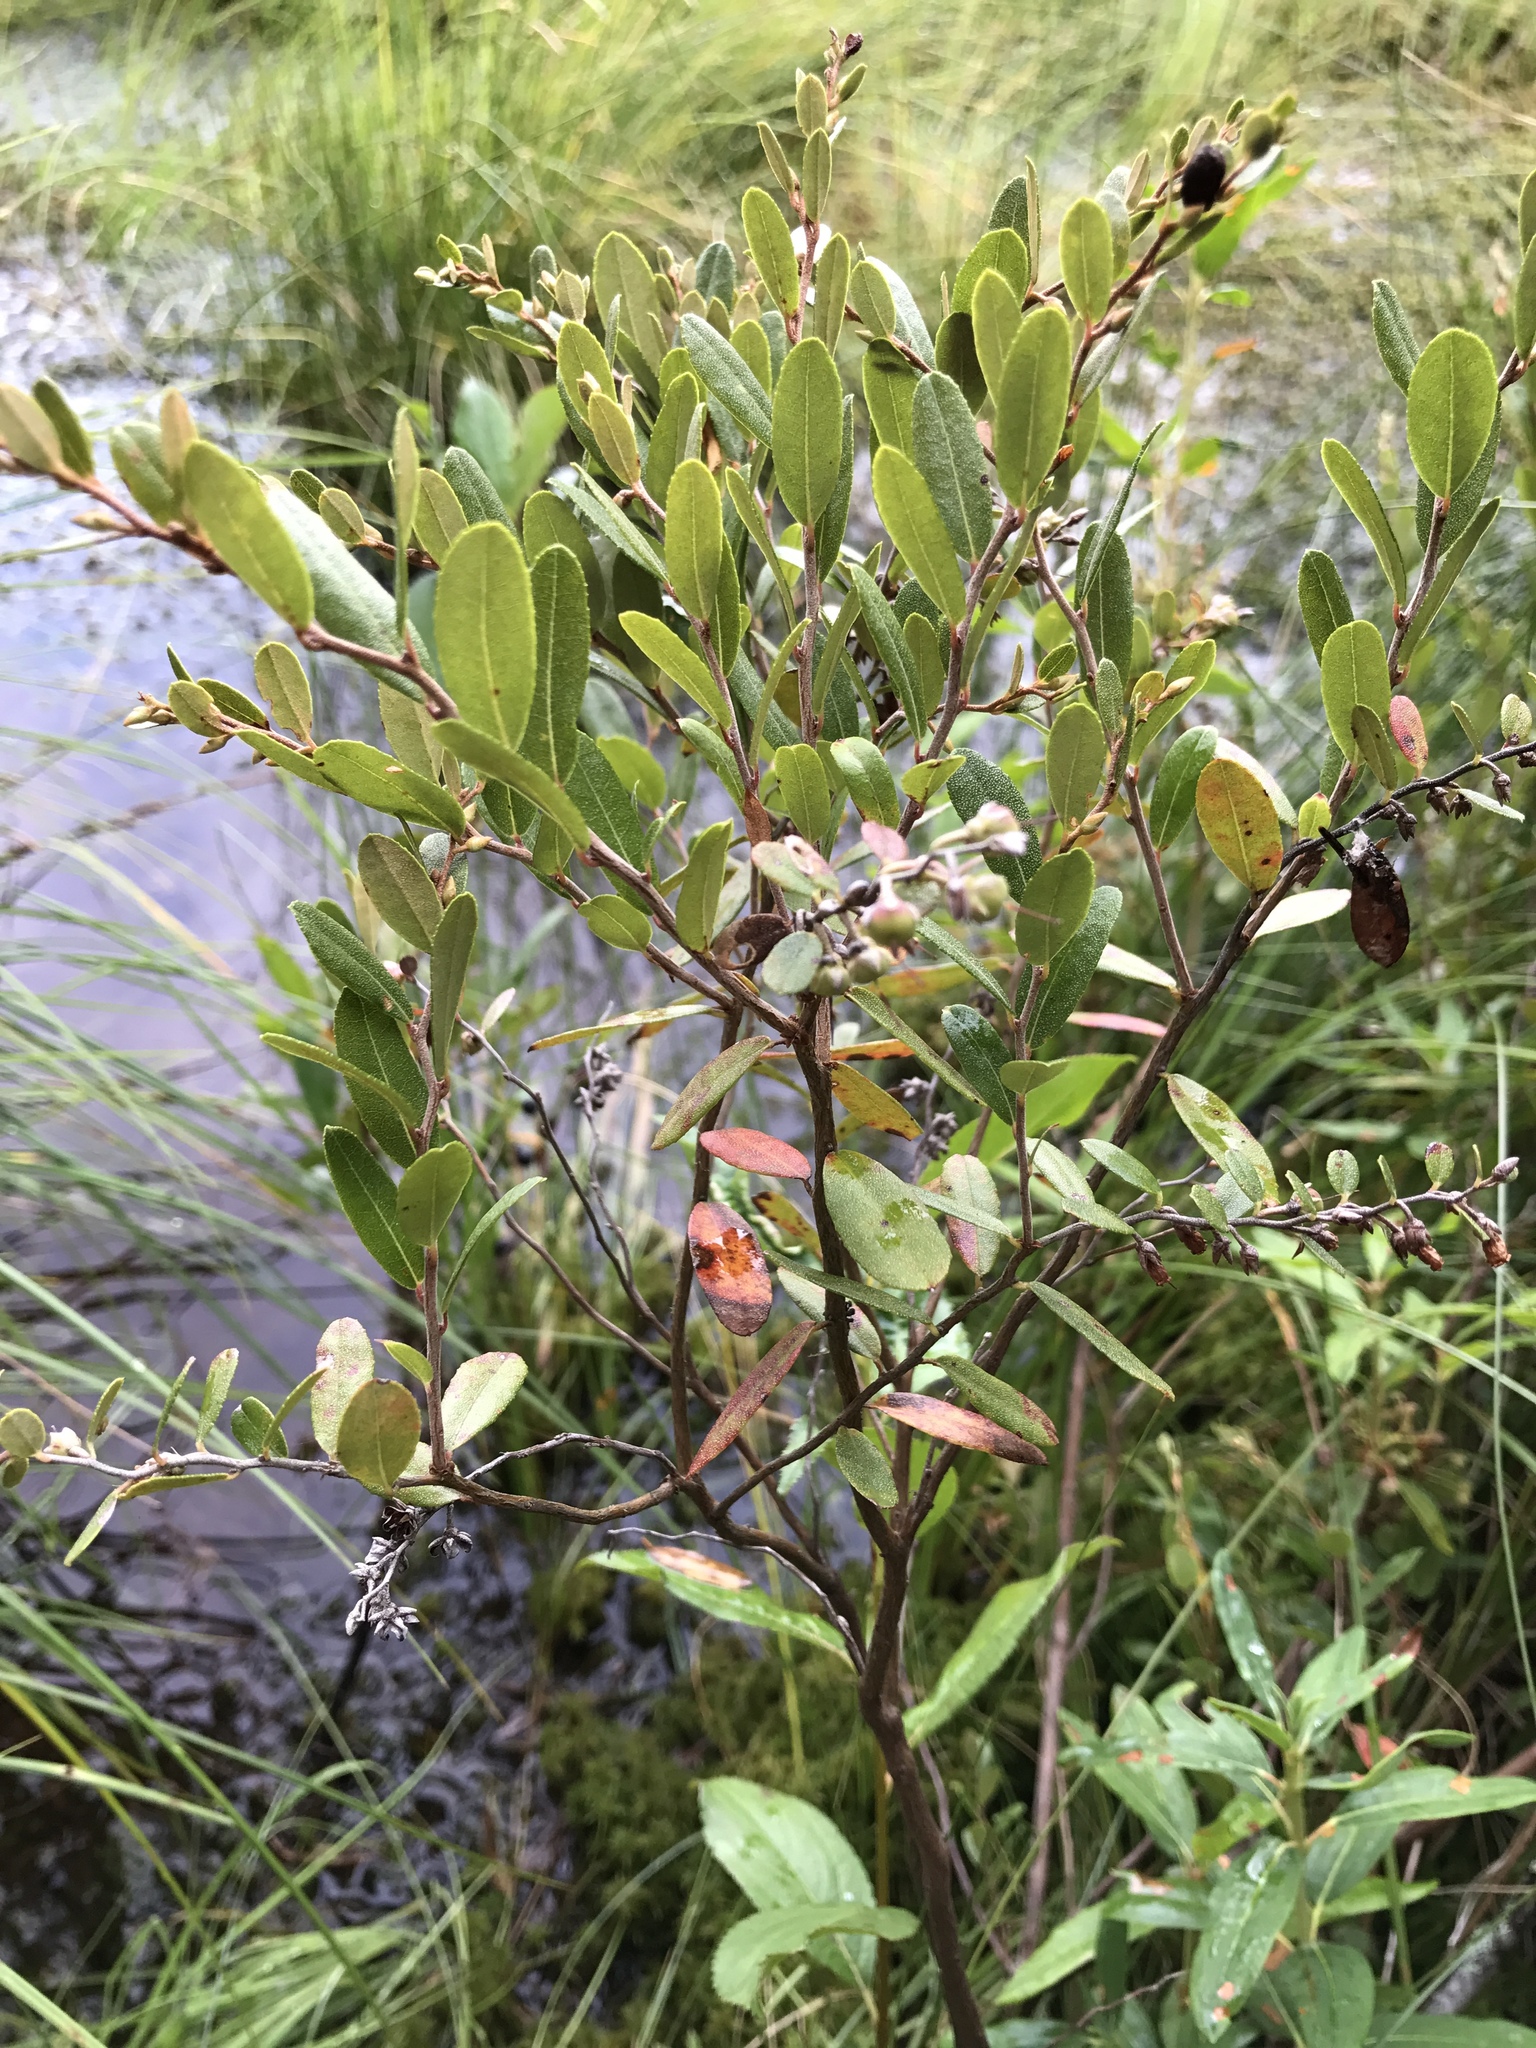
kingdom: Plantae
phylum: Tracheophyta
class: Magnoliopsida
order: Ericales
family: Ericaceae
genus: Chamaedaphne
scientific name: Chamaedaphne calyculata
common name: Leatherleaf
